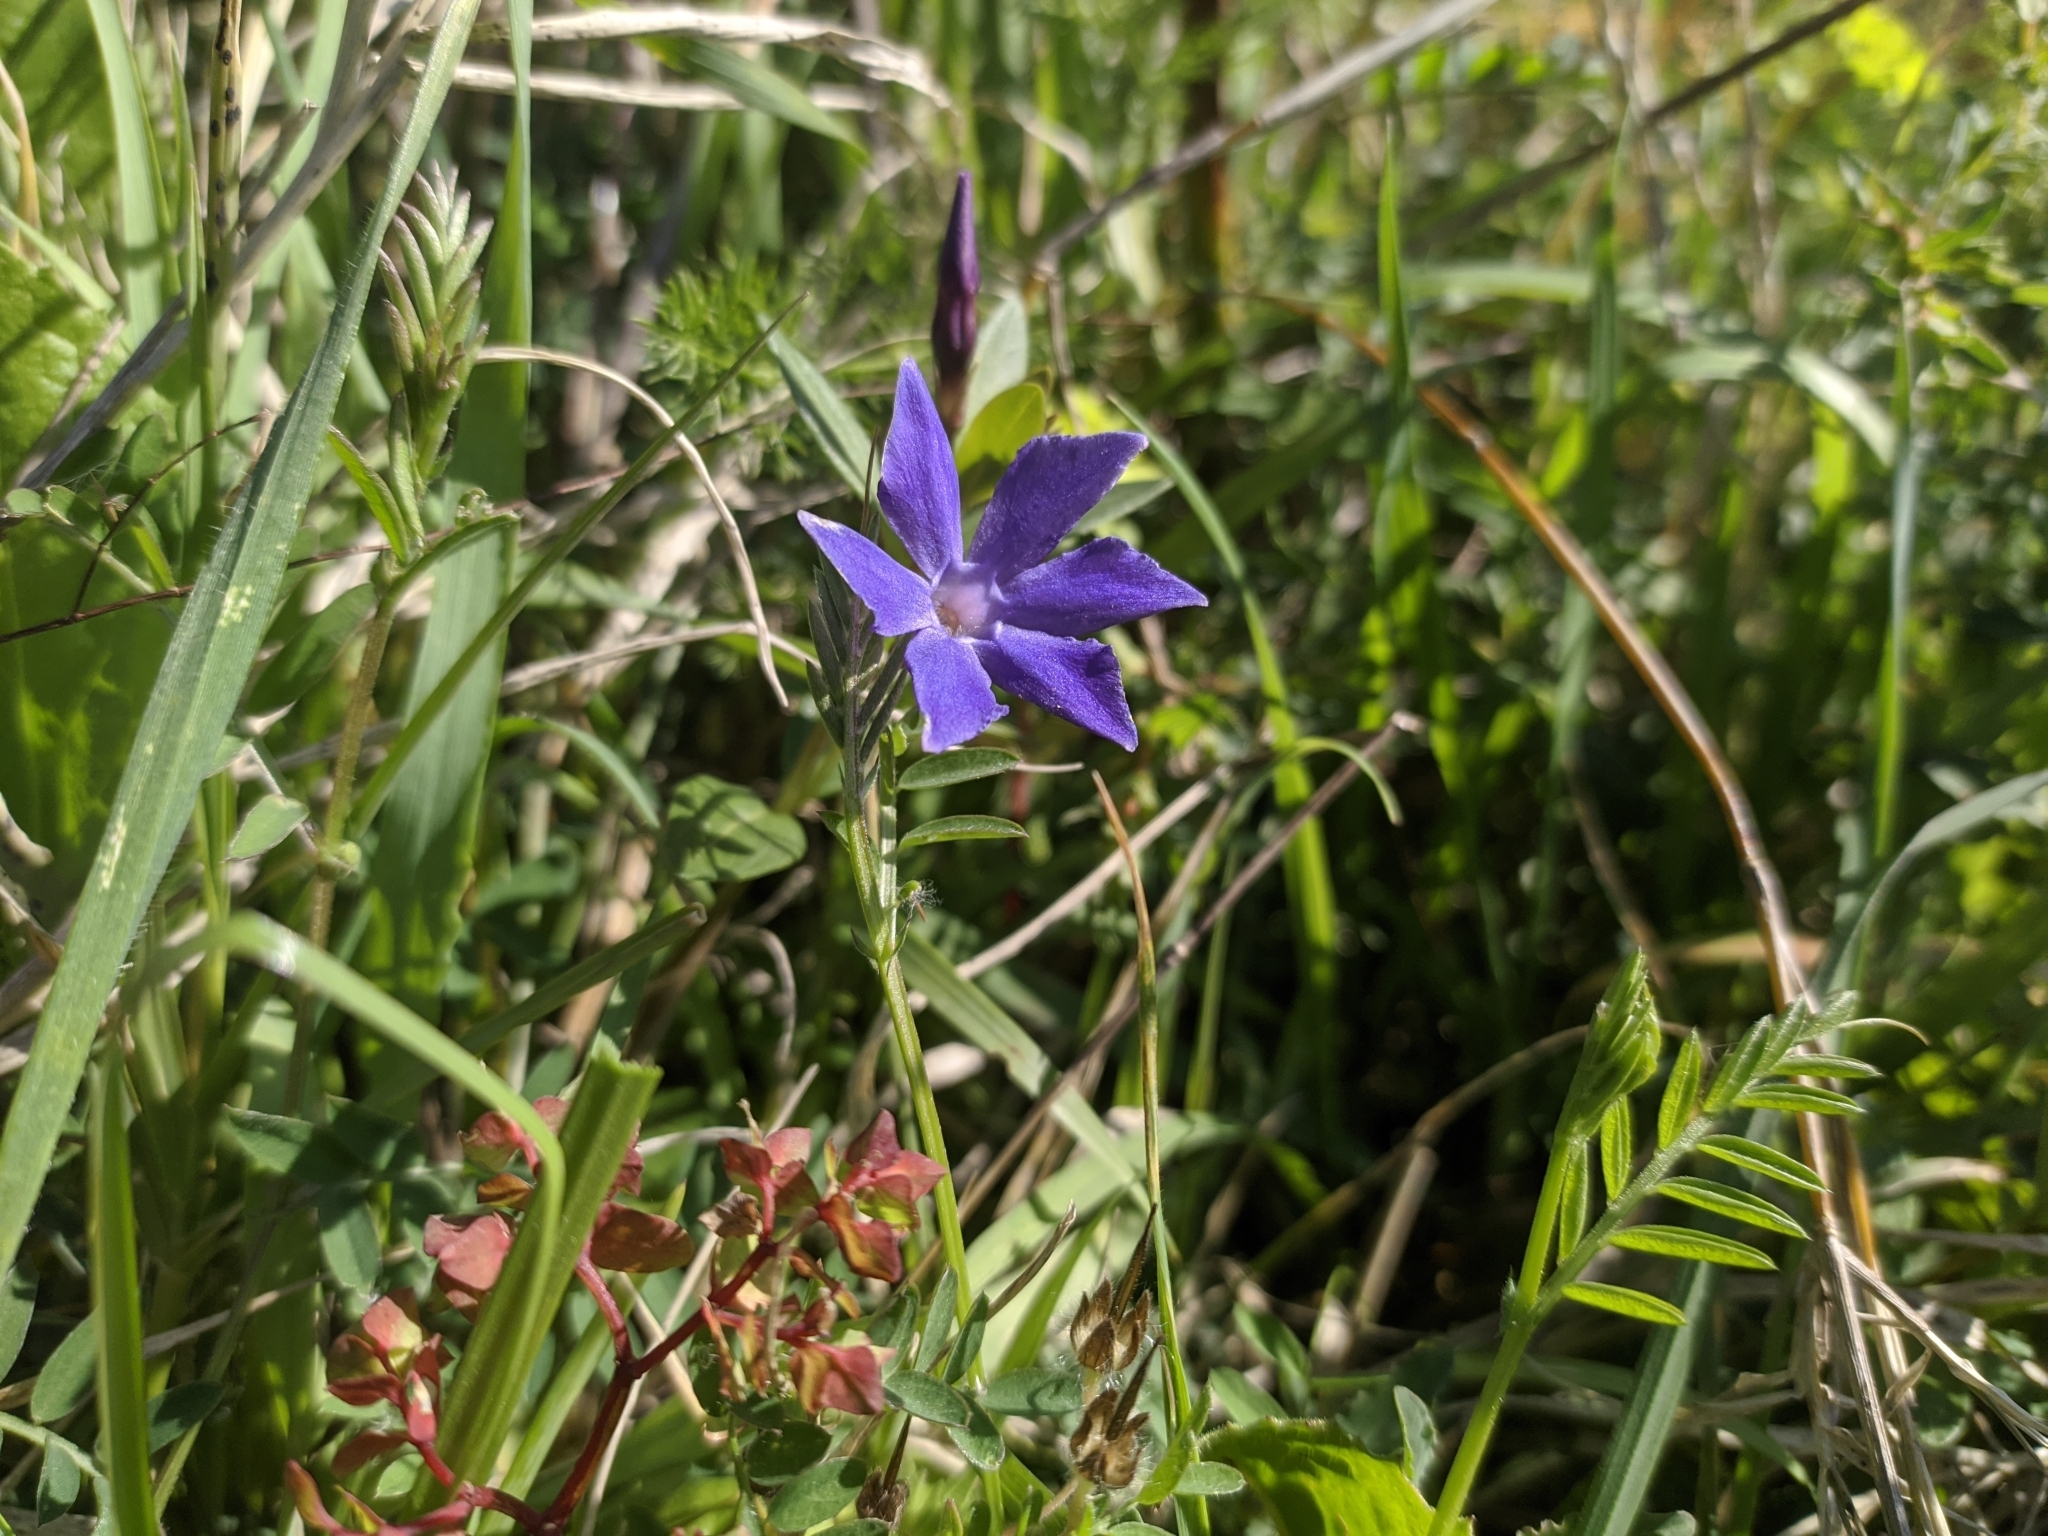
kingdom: Plantae
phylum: Tracheophyta
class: Magnoliopsida
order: Gentianales
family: Apocynaceae
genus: Vinca
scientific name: Vinca herbacea
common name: Herbaceous periwinkle
